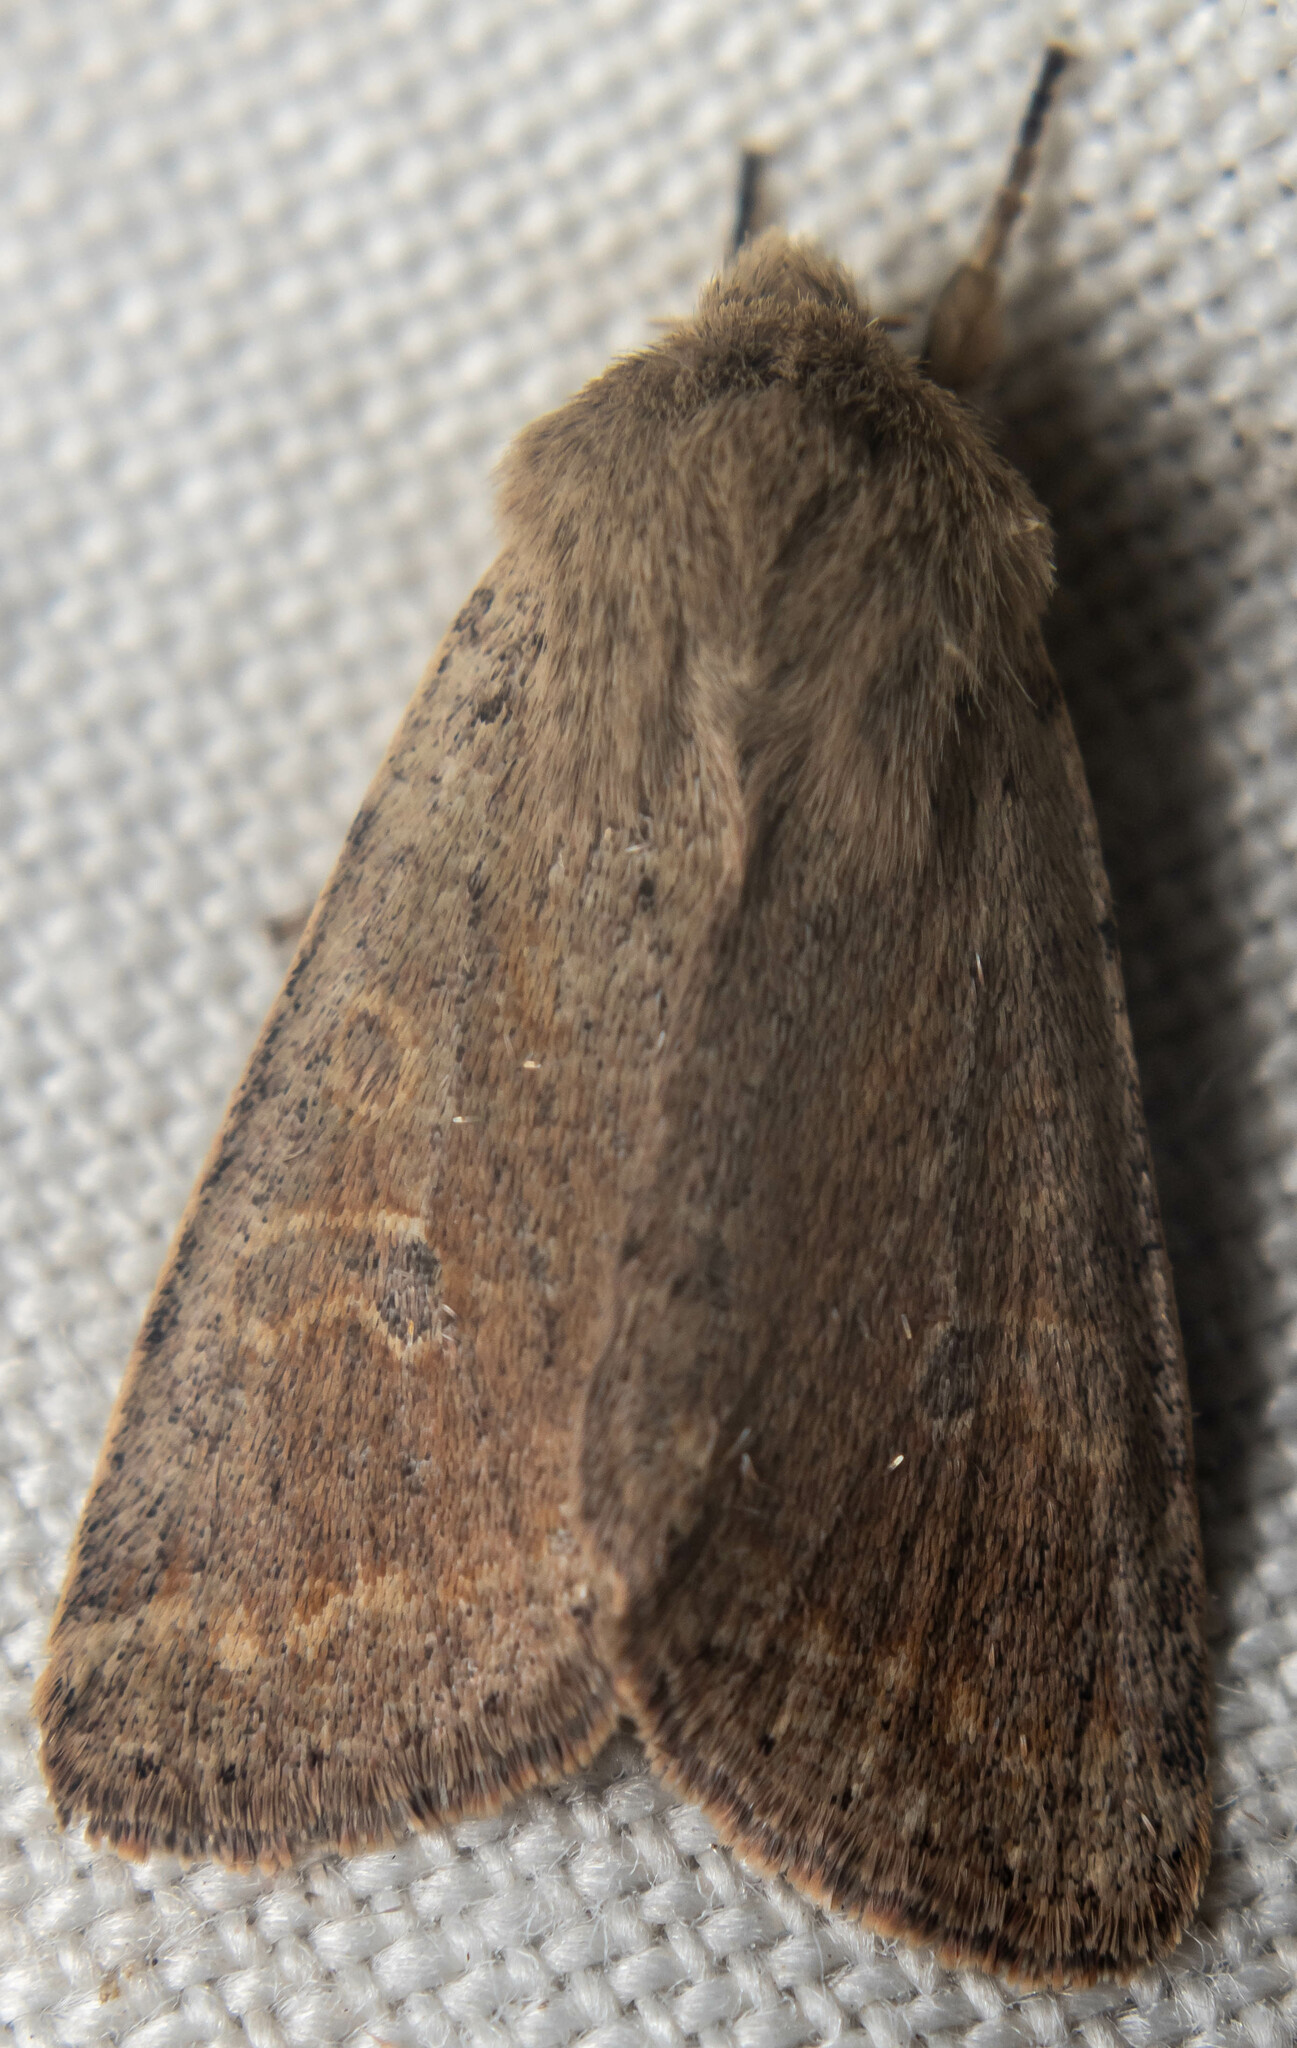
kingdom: Animalia
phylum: Arthropoda
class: Insecta
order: Lepidoptera
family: Noctuidae
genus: Orthosia
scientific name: Orthosia cruda
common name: Small quaker
